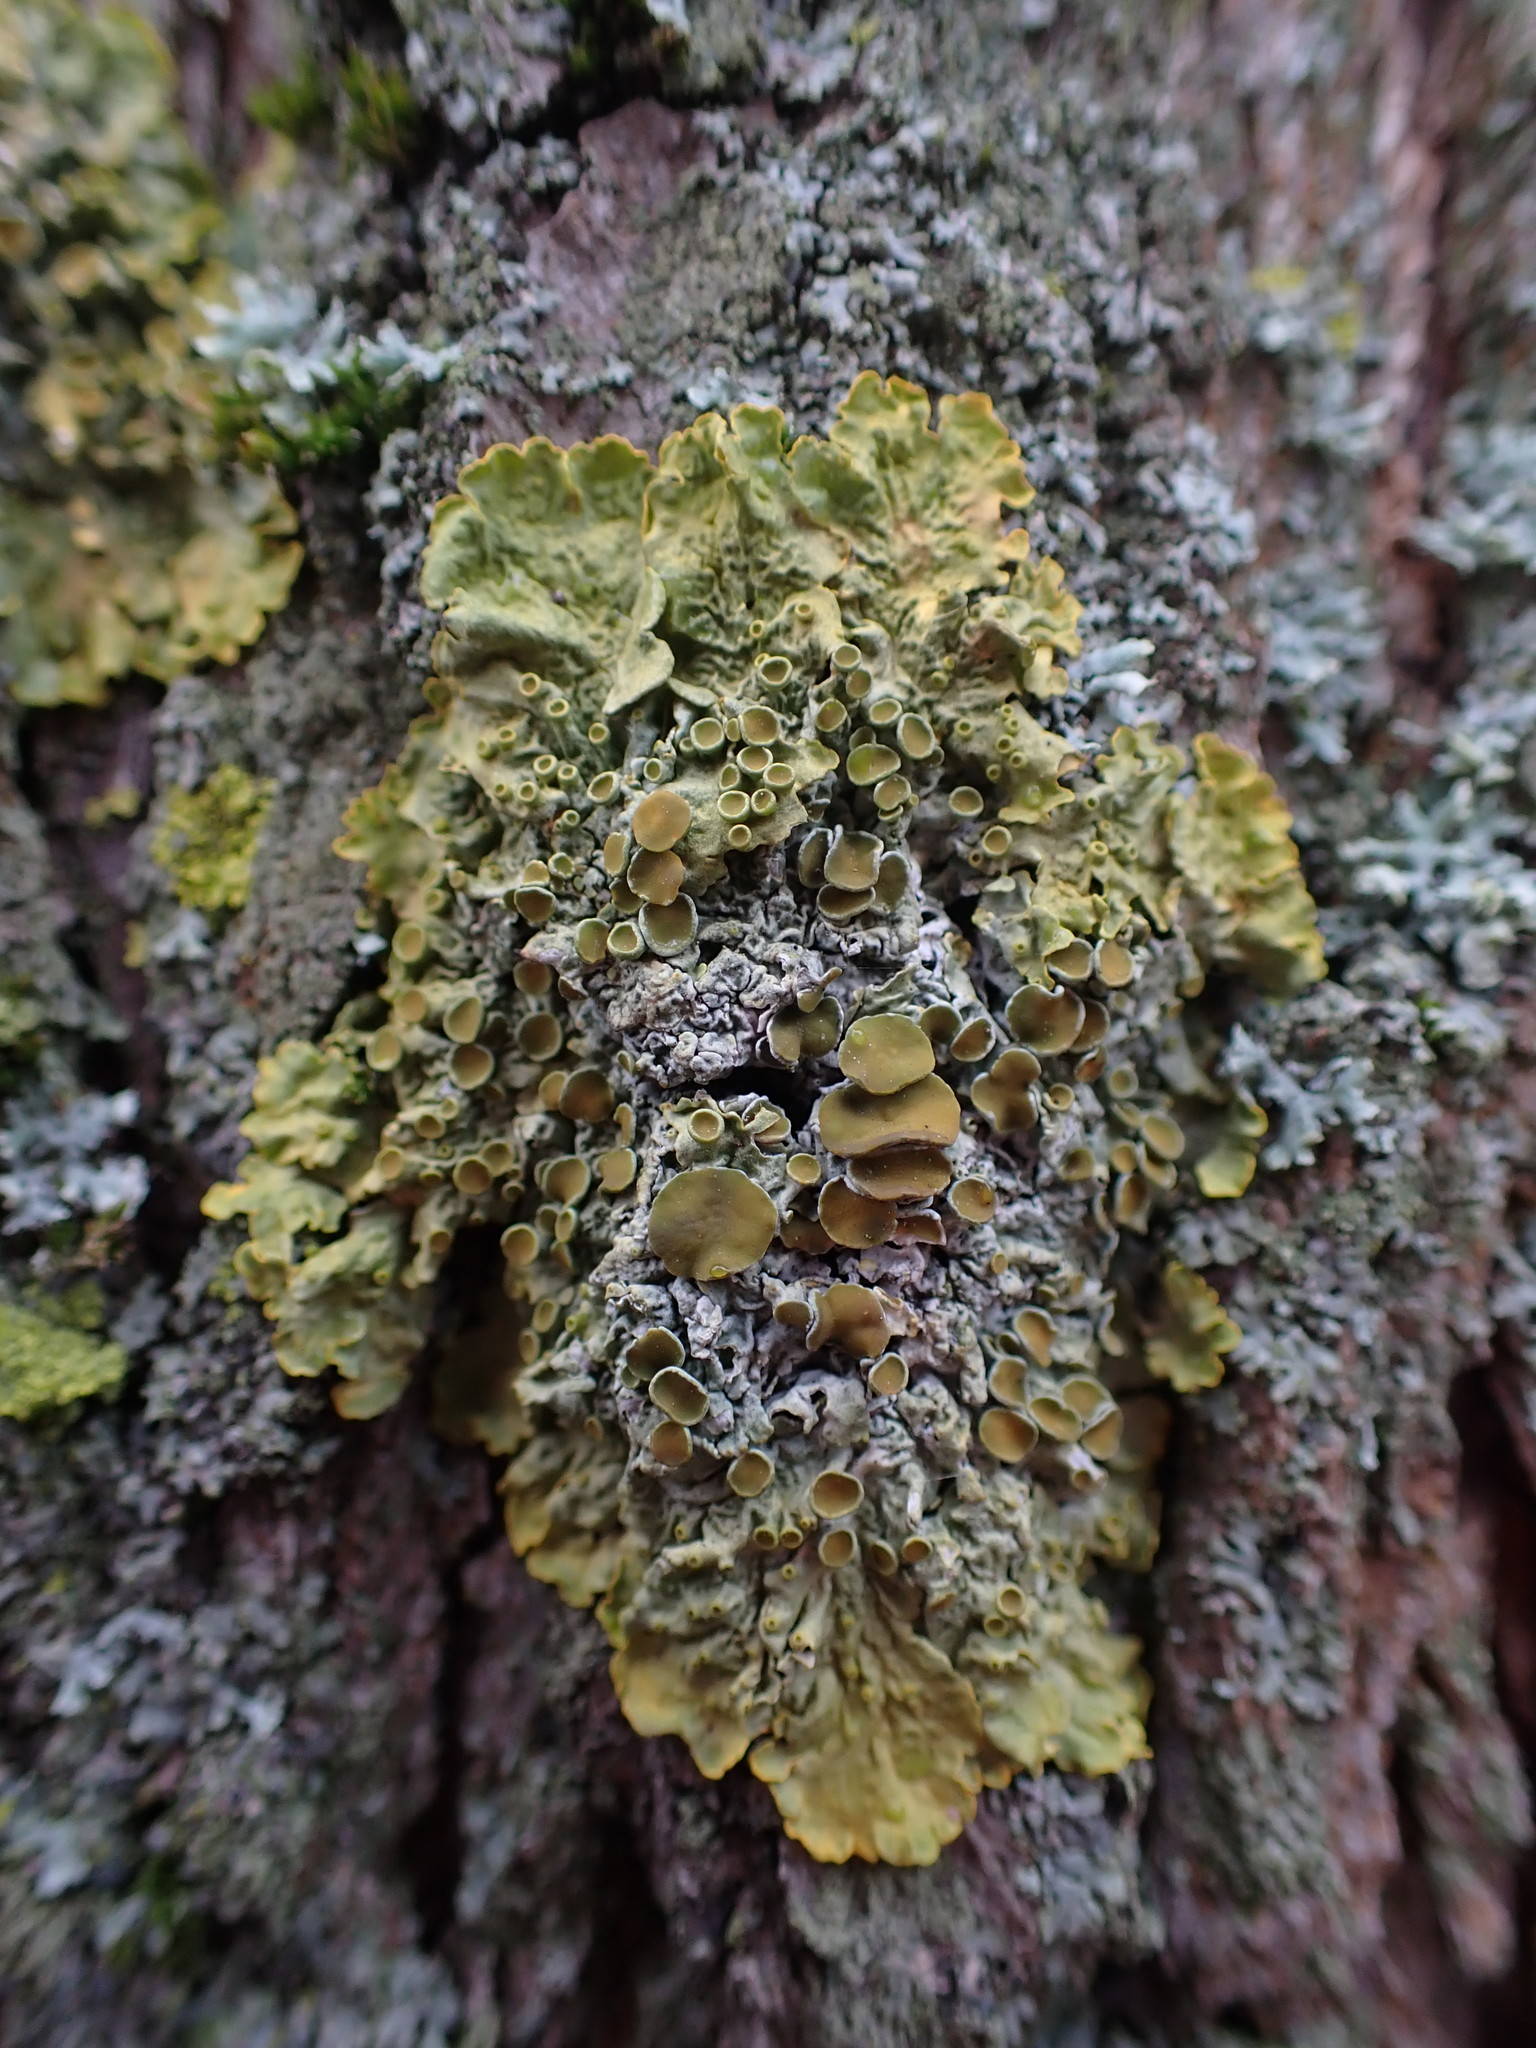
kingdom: Fungi
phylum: Ascomycota
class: Lecanoromycetes
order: Teloschistales
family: Teloschistaceae
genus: Xanthoria
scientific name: Xanthoria parietina
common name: Common orange lichen
